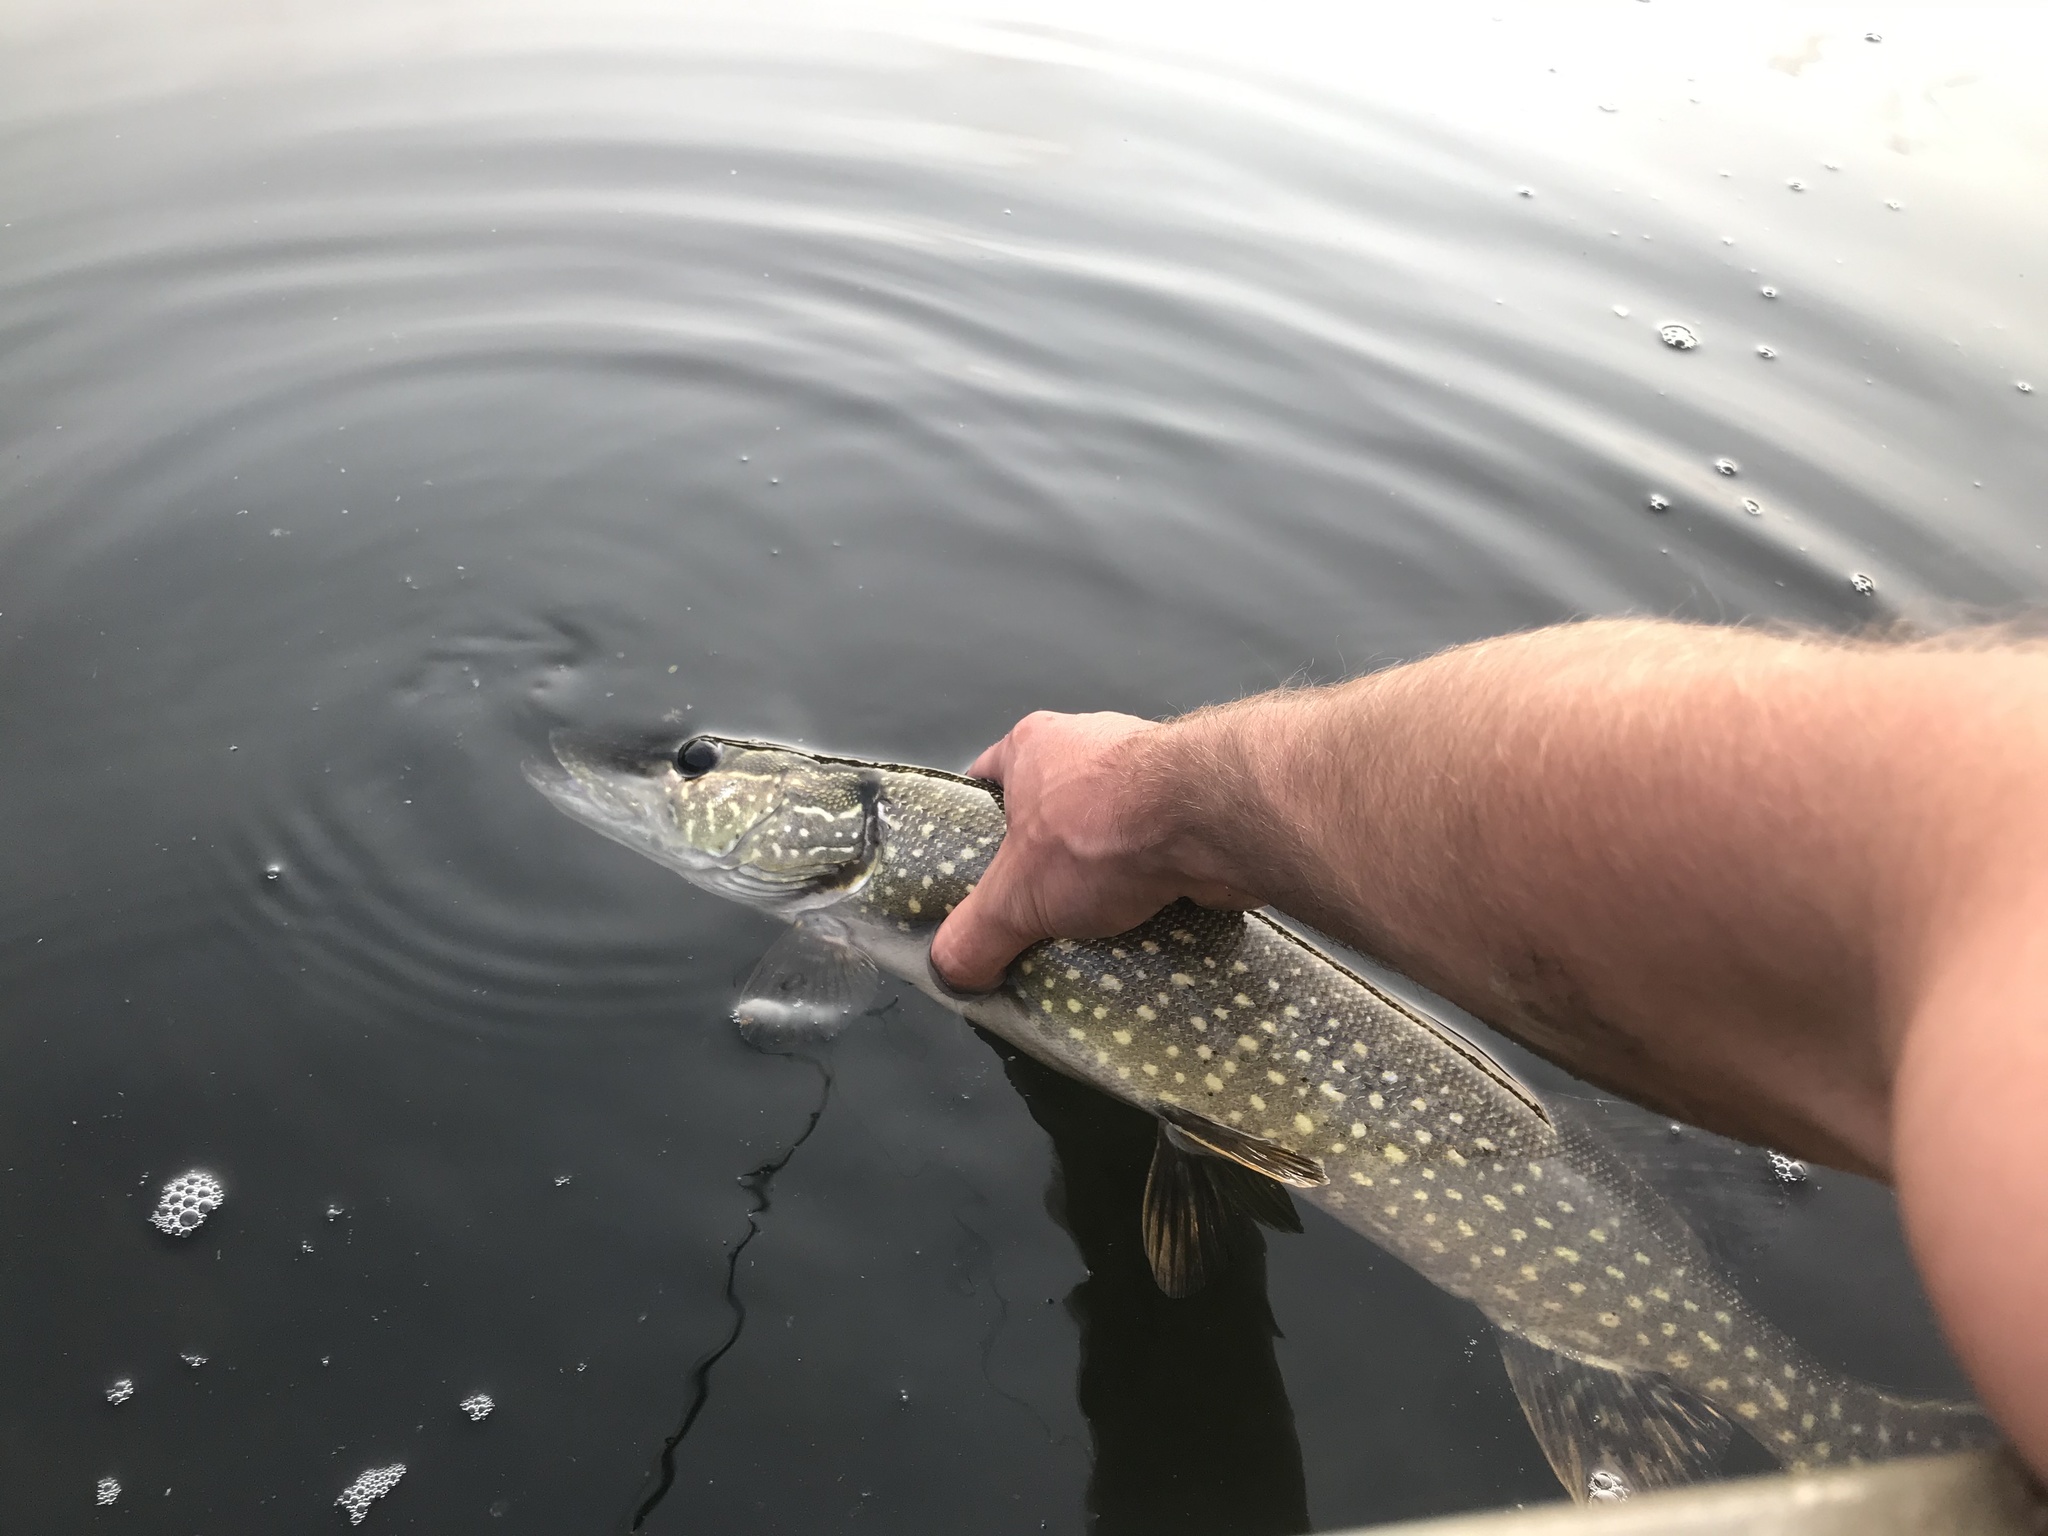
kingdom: Animalia
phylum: Chordata
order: Esociformes
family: Esocidae
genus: Esox
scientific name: Esox lucius
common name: Northern pike
